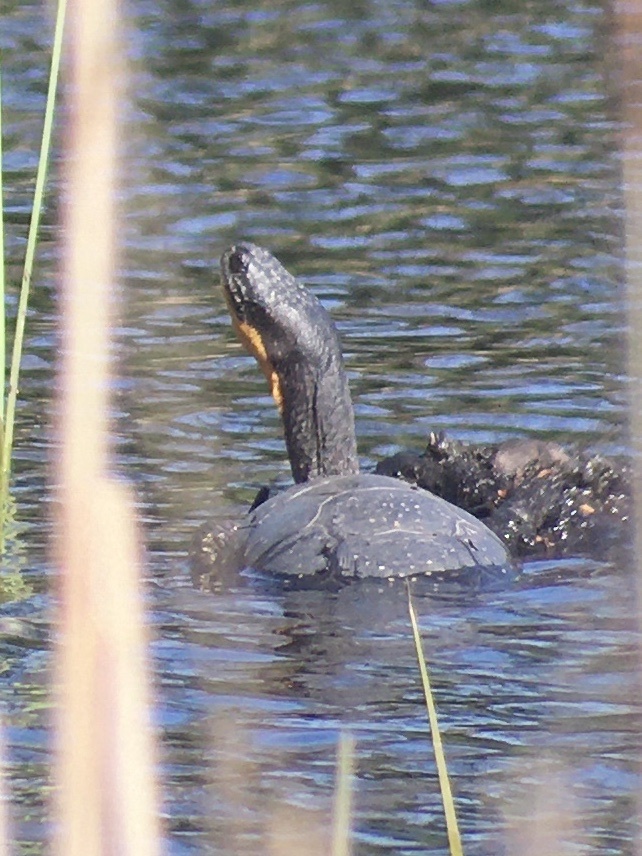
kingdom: Animalia
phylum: Chordata
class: Testudines
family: Emydidae
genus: Emys
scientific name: Emys blandingii
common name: Blanding's turtle
